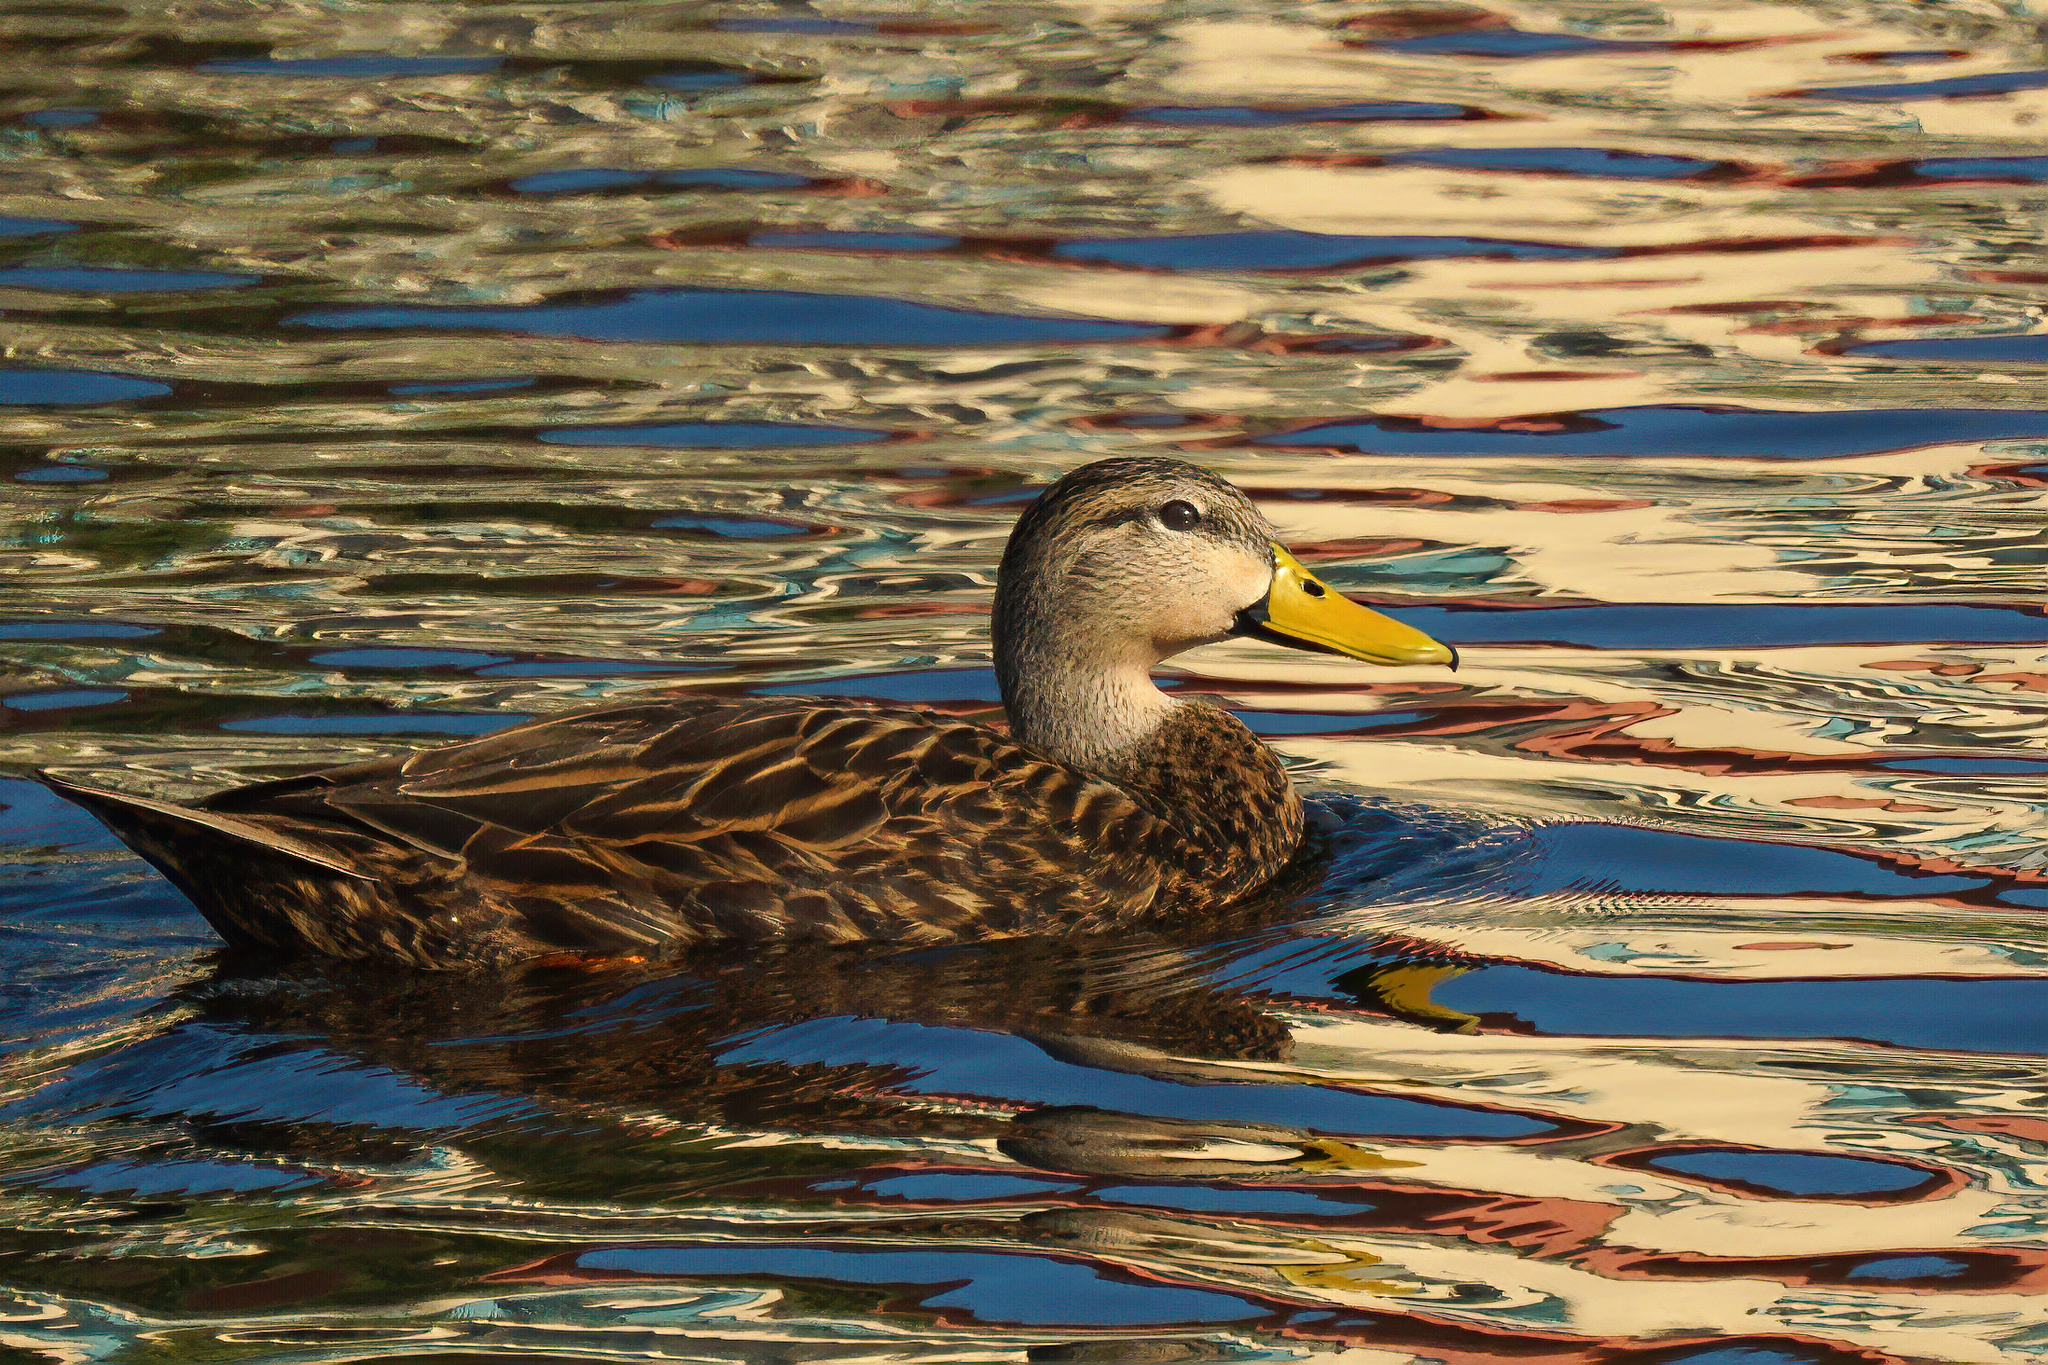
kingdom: Animalia
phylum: Chordata
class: Aves
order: Anseriformes
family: Anatidae
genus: Anas
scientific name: Anas fulvigula
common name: Mottled duck
